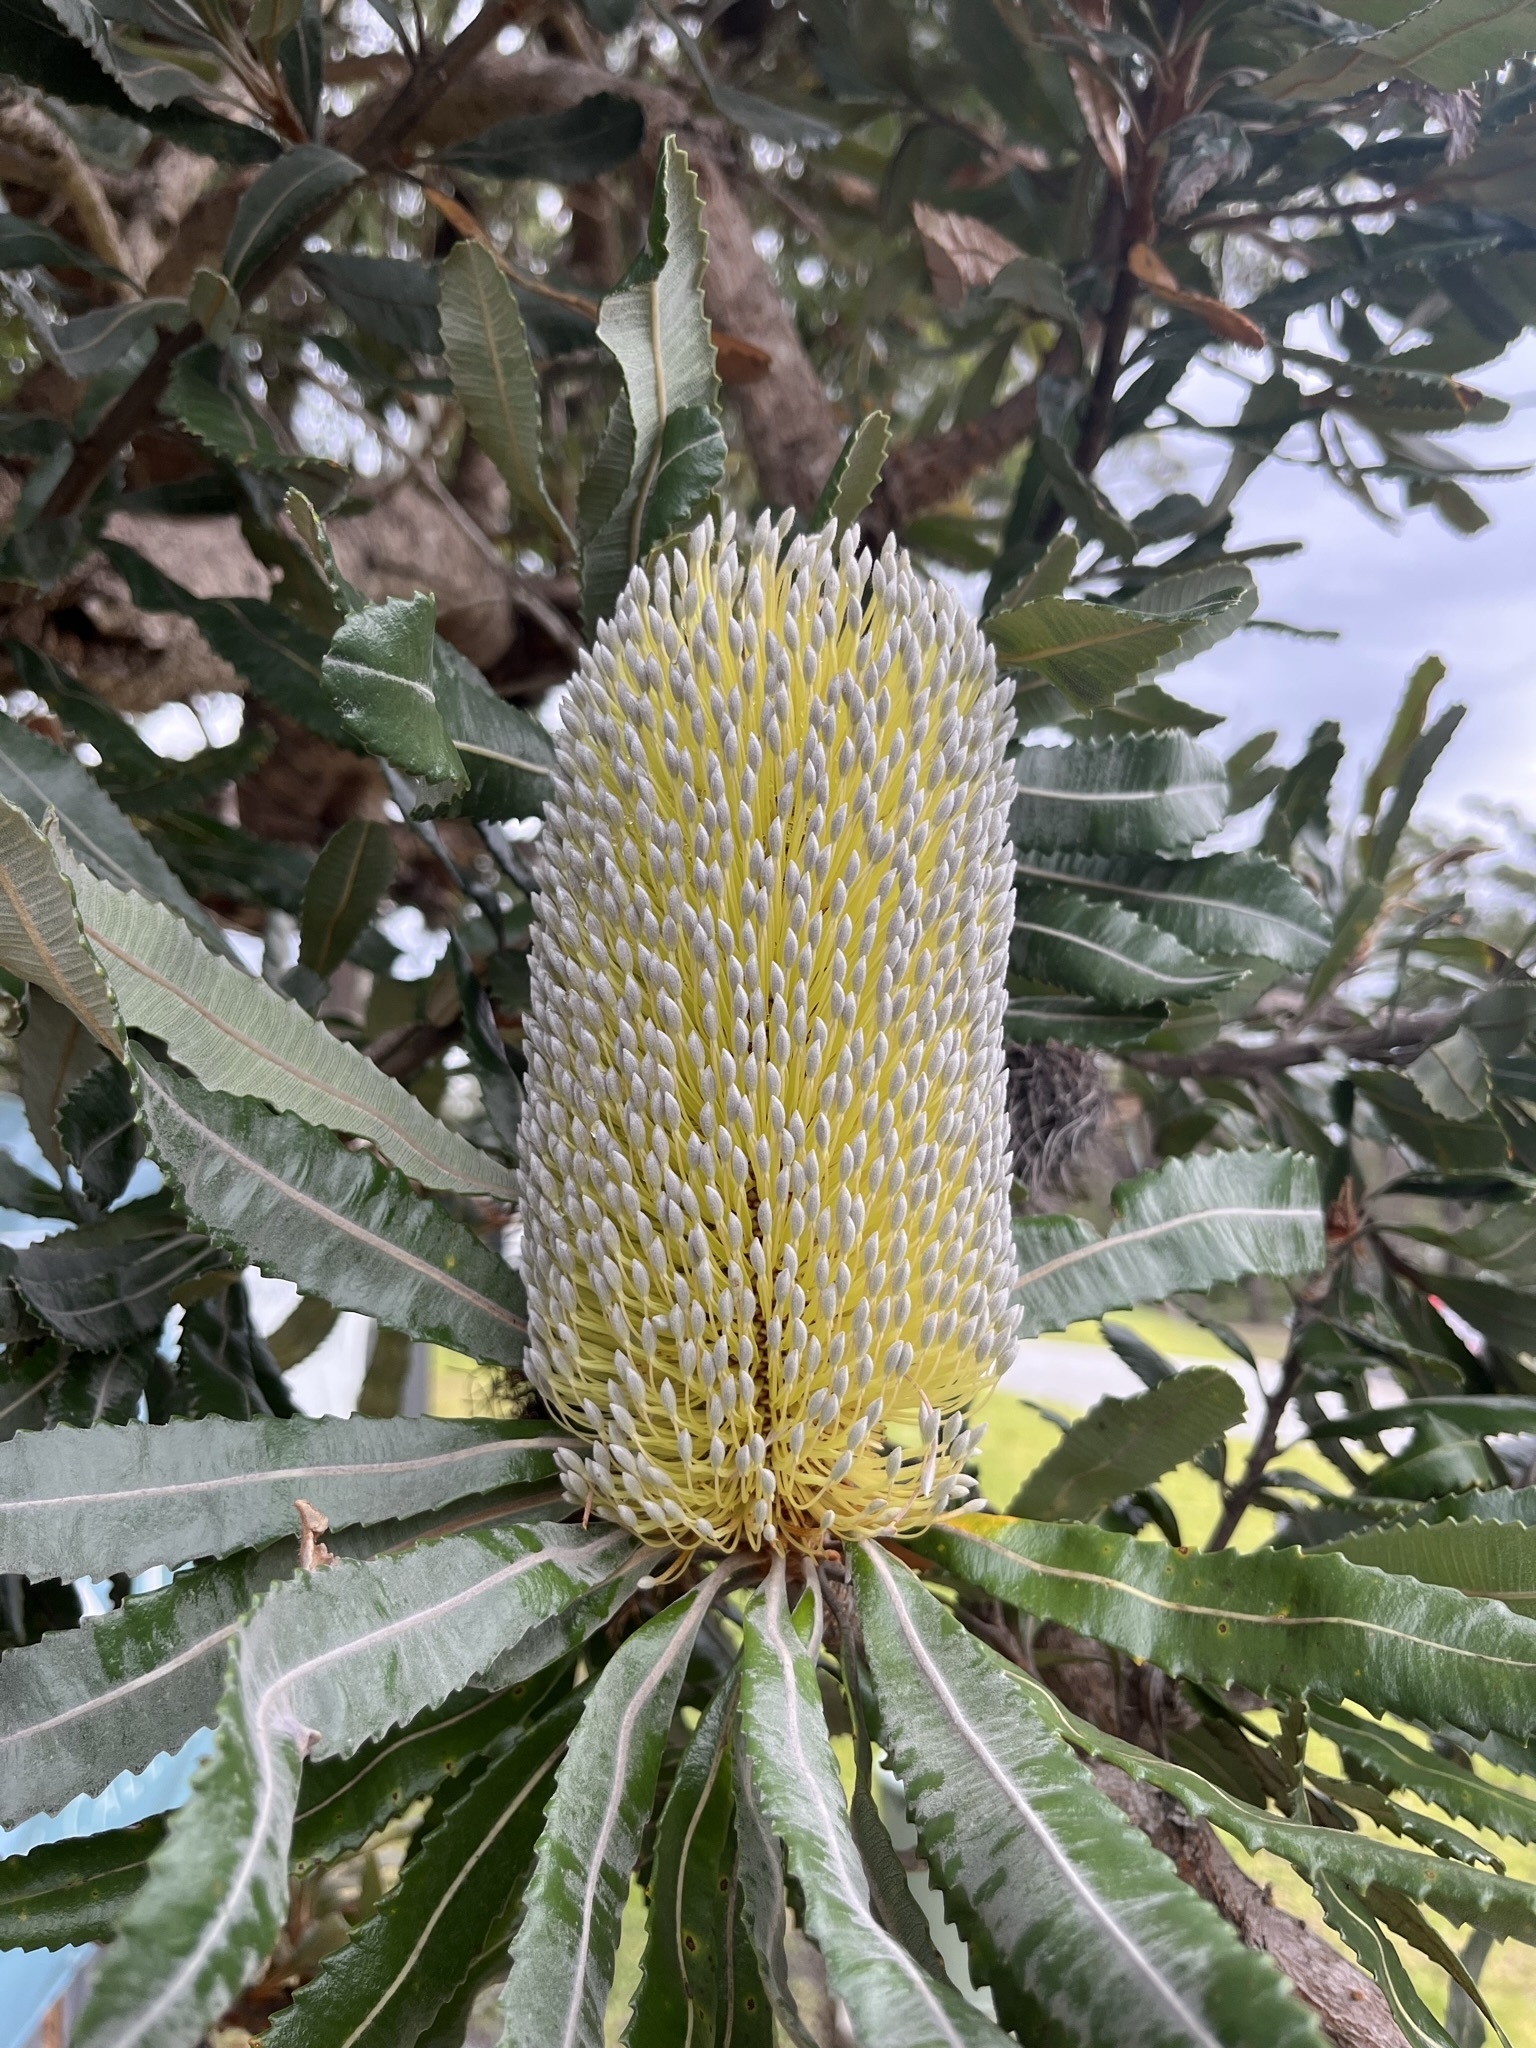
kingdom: Plantae
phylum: Tracheophyta
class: Magnoliopsida
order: Proteales
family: Proteaceae
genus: Banksia
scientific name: Banksia serrata
